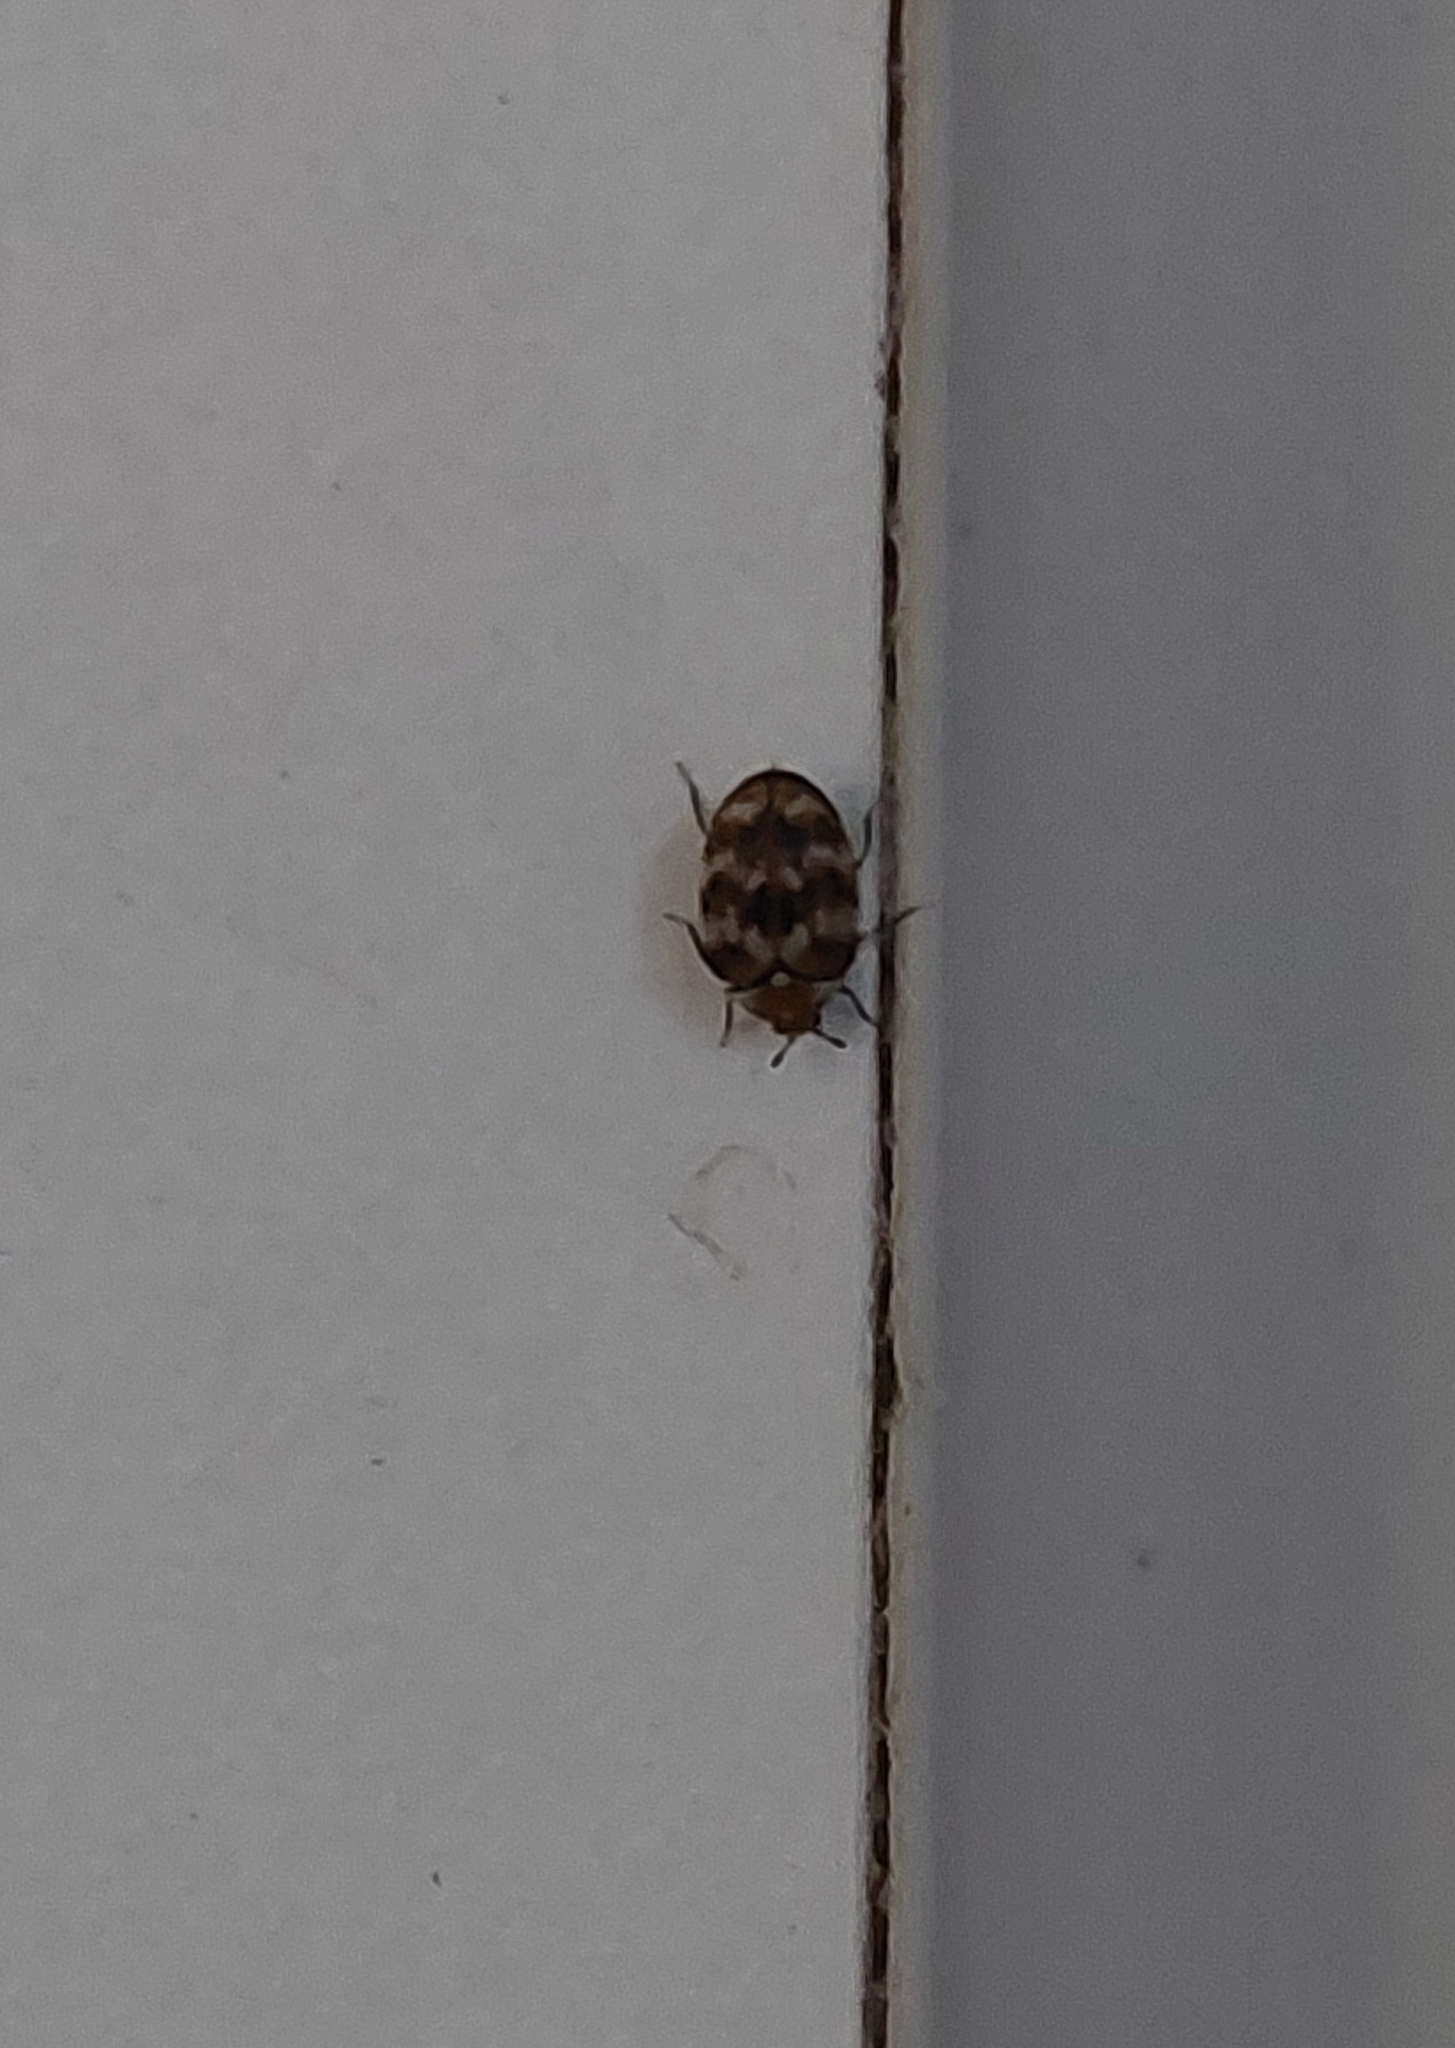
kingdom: Animalia
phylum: Arthropoda
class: Insecta
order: Coleoptera
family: Dermestidae
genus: Anthrenus
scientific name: Anthrenus verbasci
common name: Varied carpet beetle
